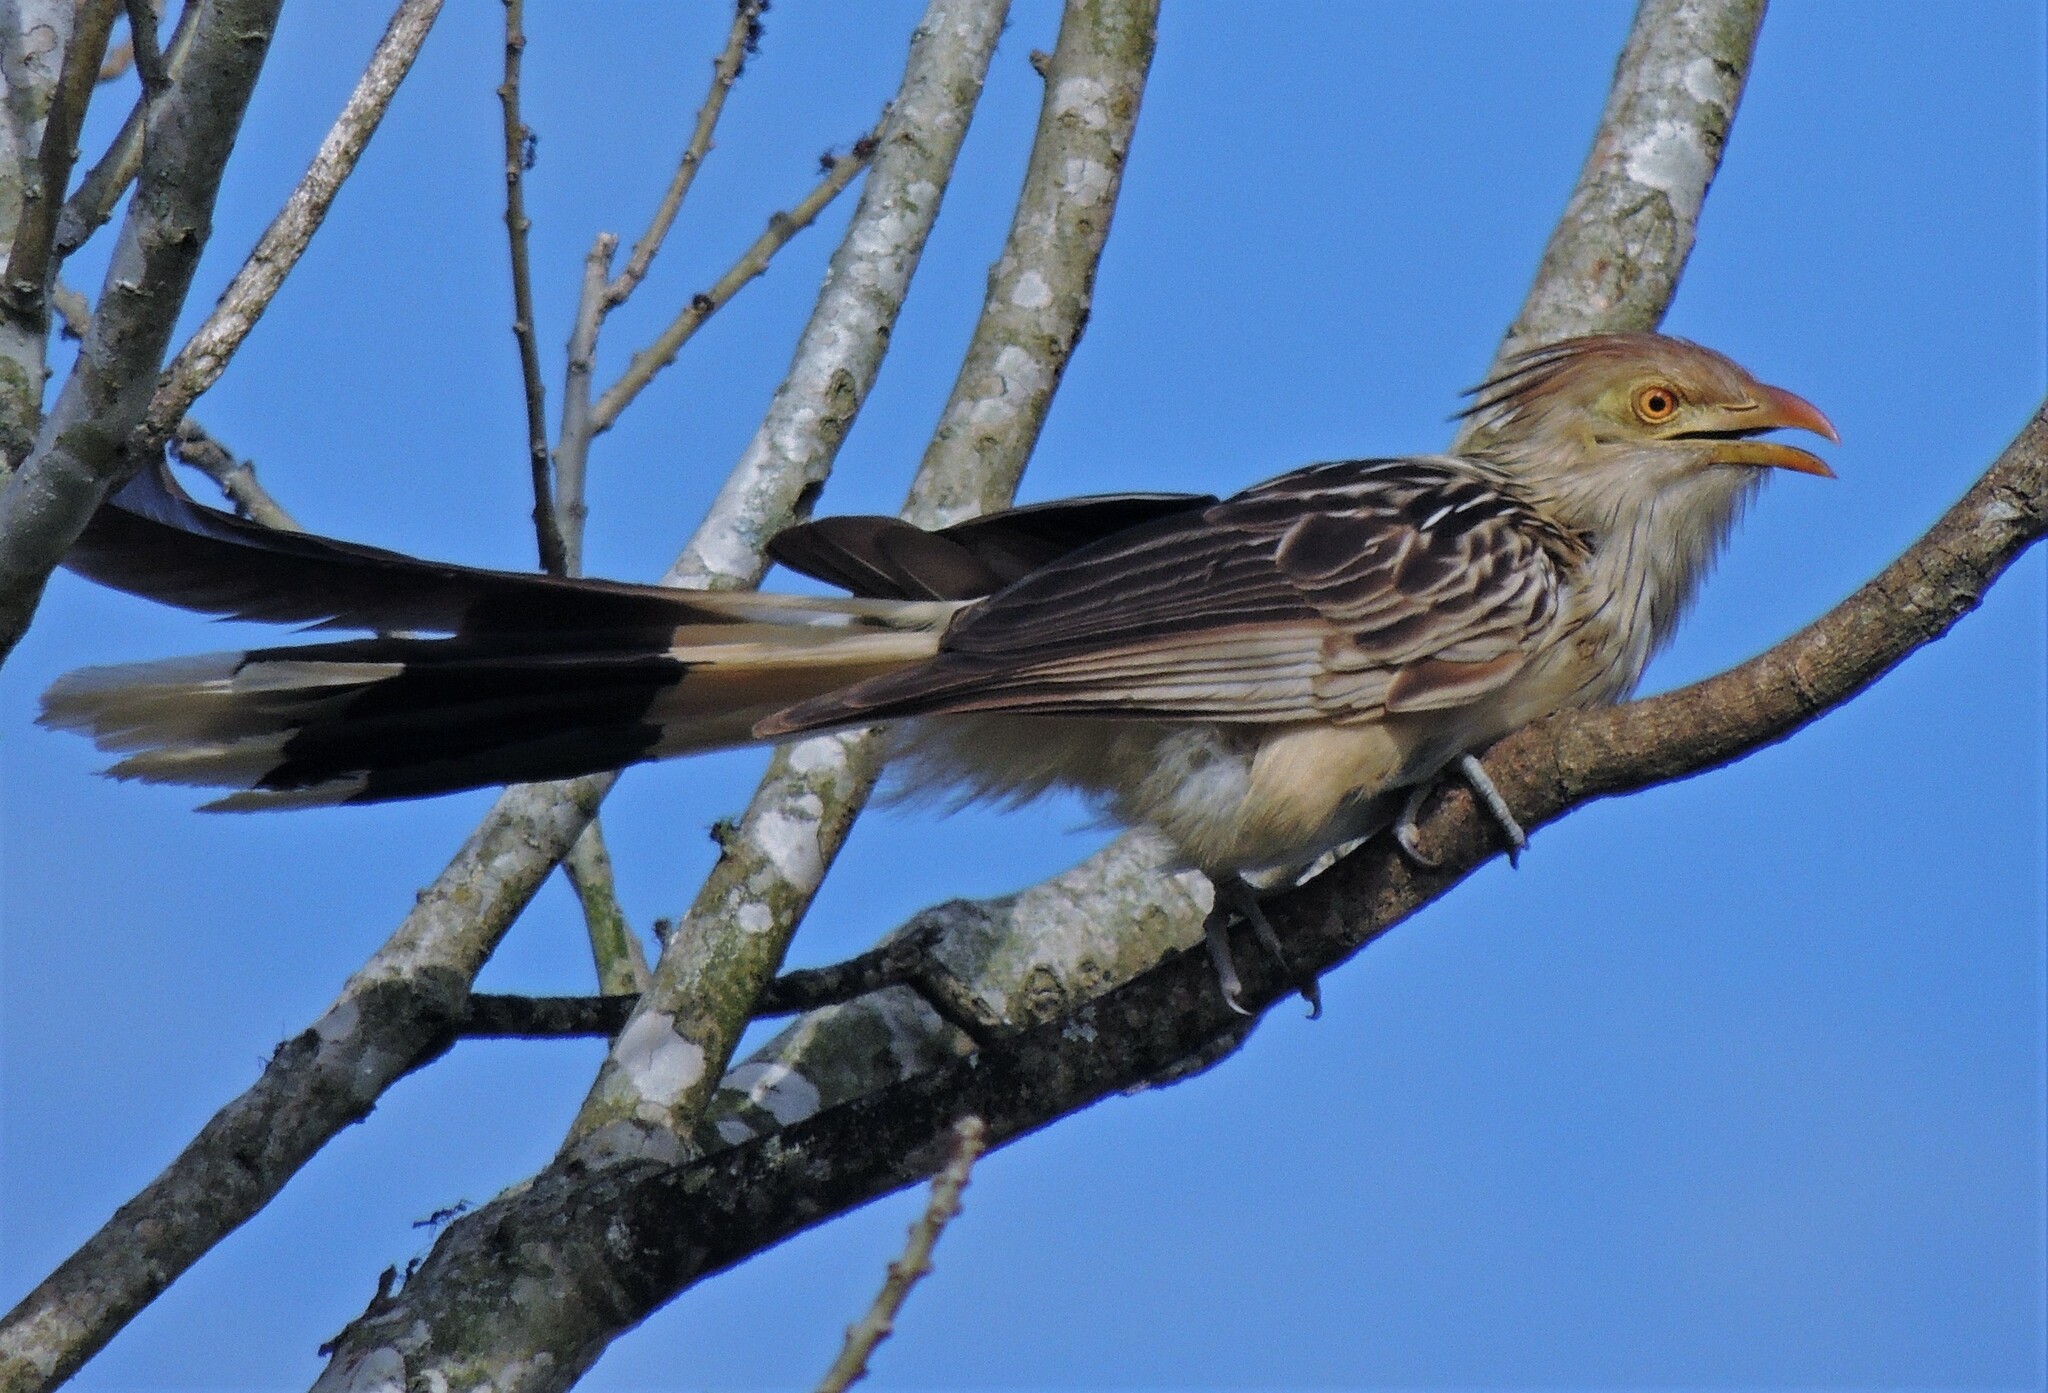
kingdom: Animalia
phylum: Chordata
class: Aves
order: Cuculiformes
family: Cuculidae
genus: Guira
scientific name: Guira guira
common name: Guira cuckoo
